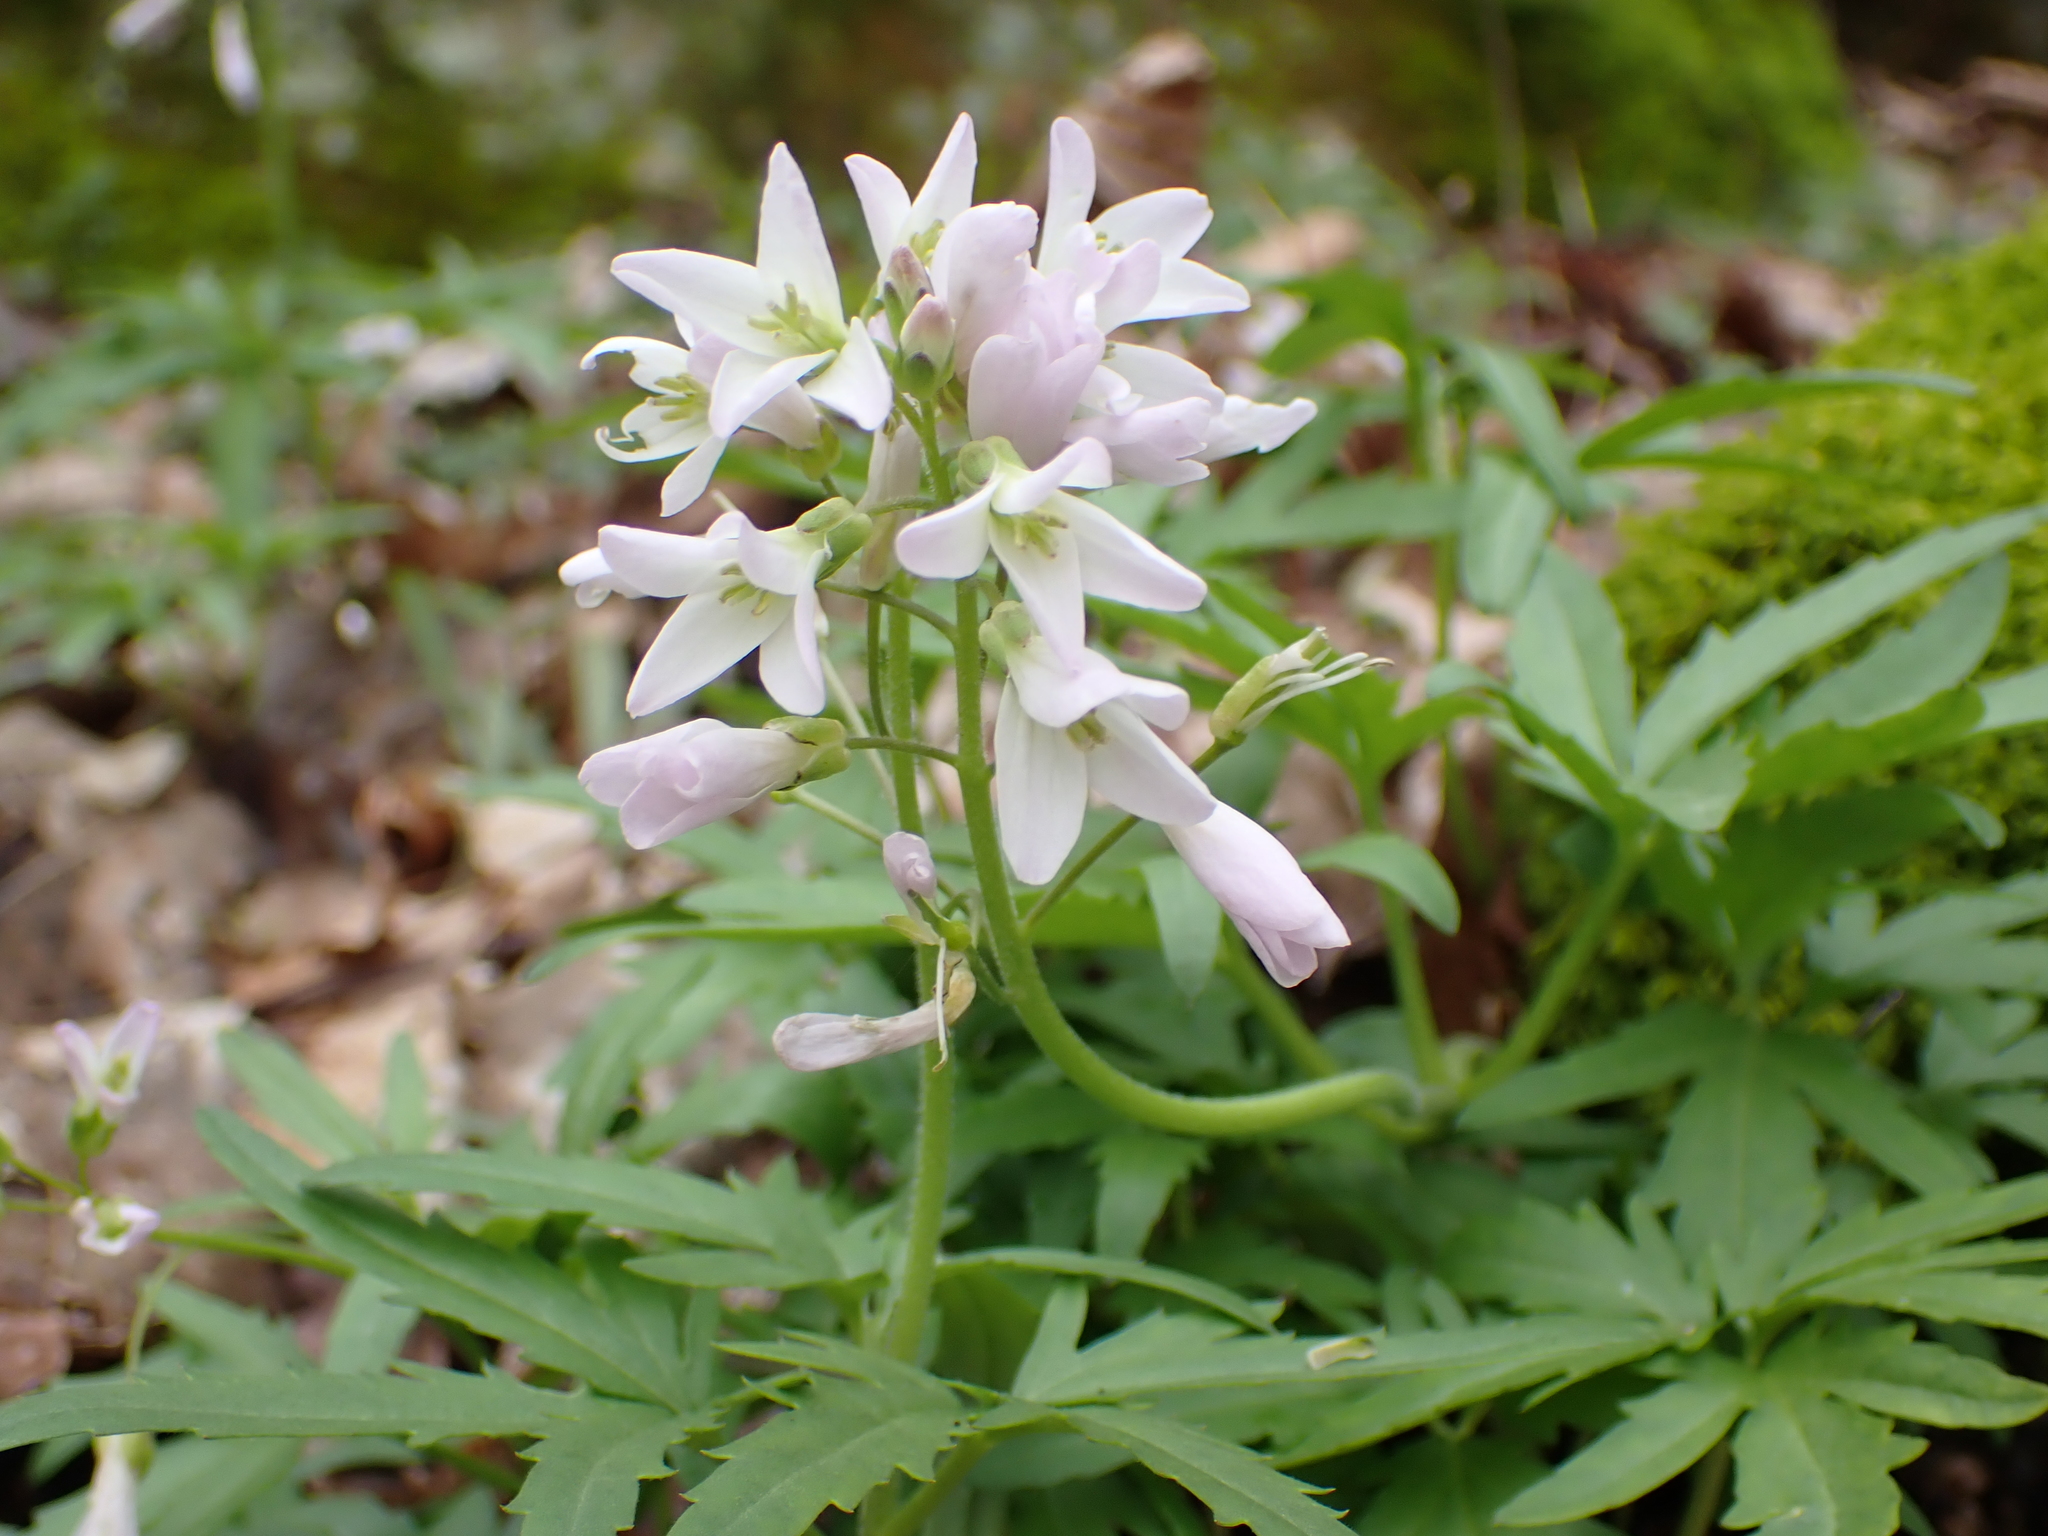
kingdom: Plantae
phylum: Tracheophyta
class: Magnoliopsida
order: Brassicales
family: Brassicaceae
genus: Cardamine
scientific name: Cardamine concatenata
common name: Cut-leaf toothcup
